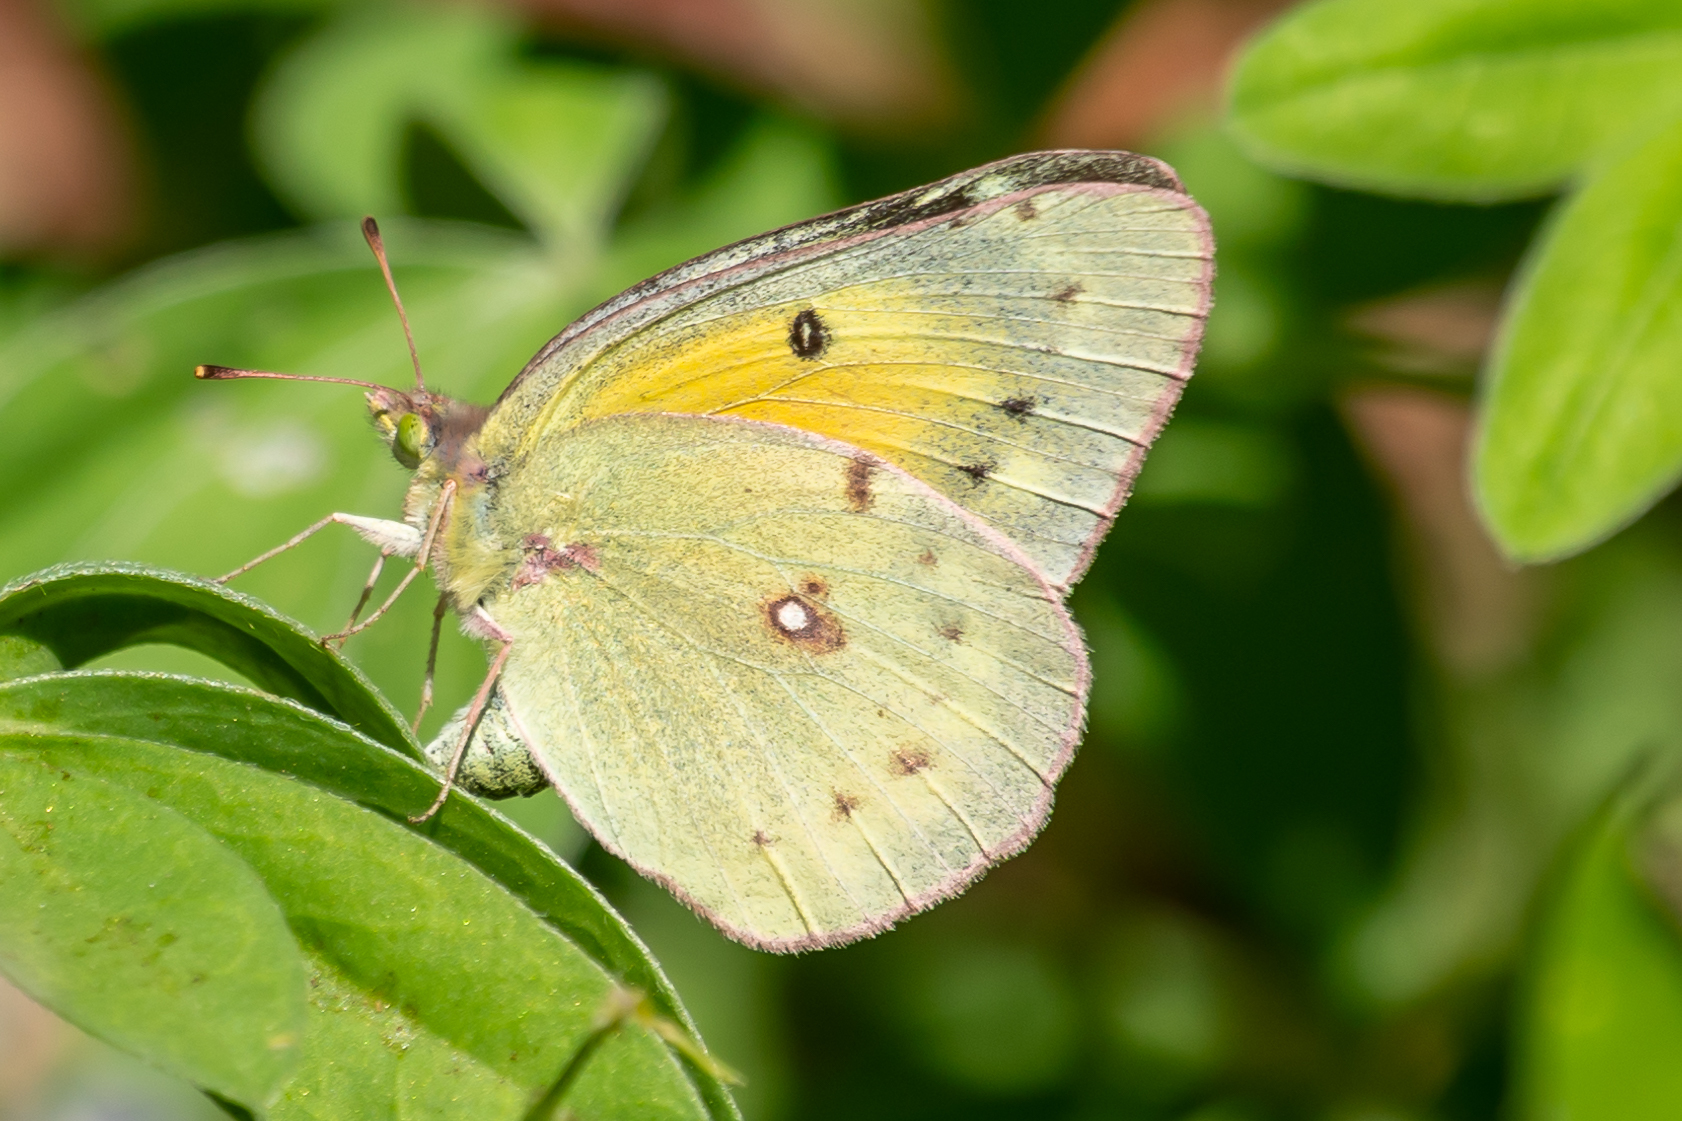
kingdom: Animalia
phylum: Arthropoda
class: Insecta
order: Lepidoptera
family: Pieridae
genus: Colias
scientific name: Colias eurytheme
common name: Alfalfa butterfly
